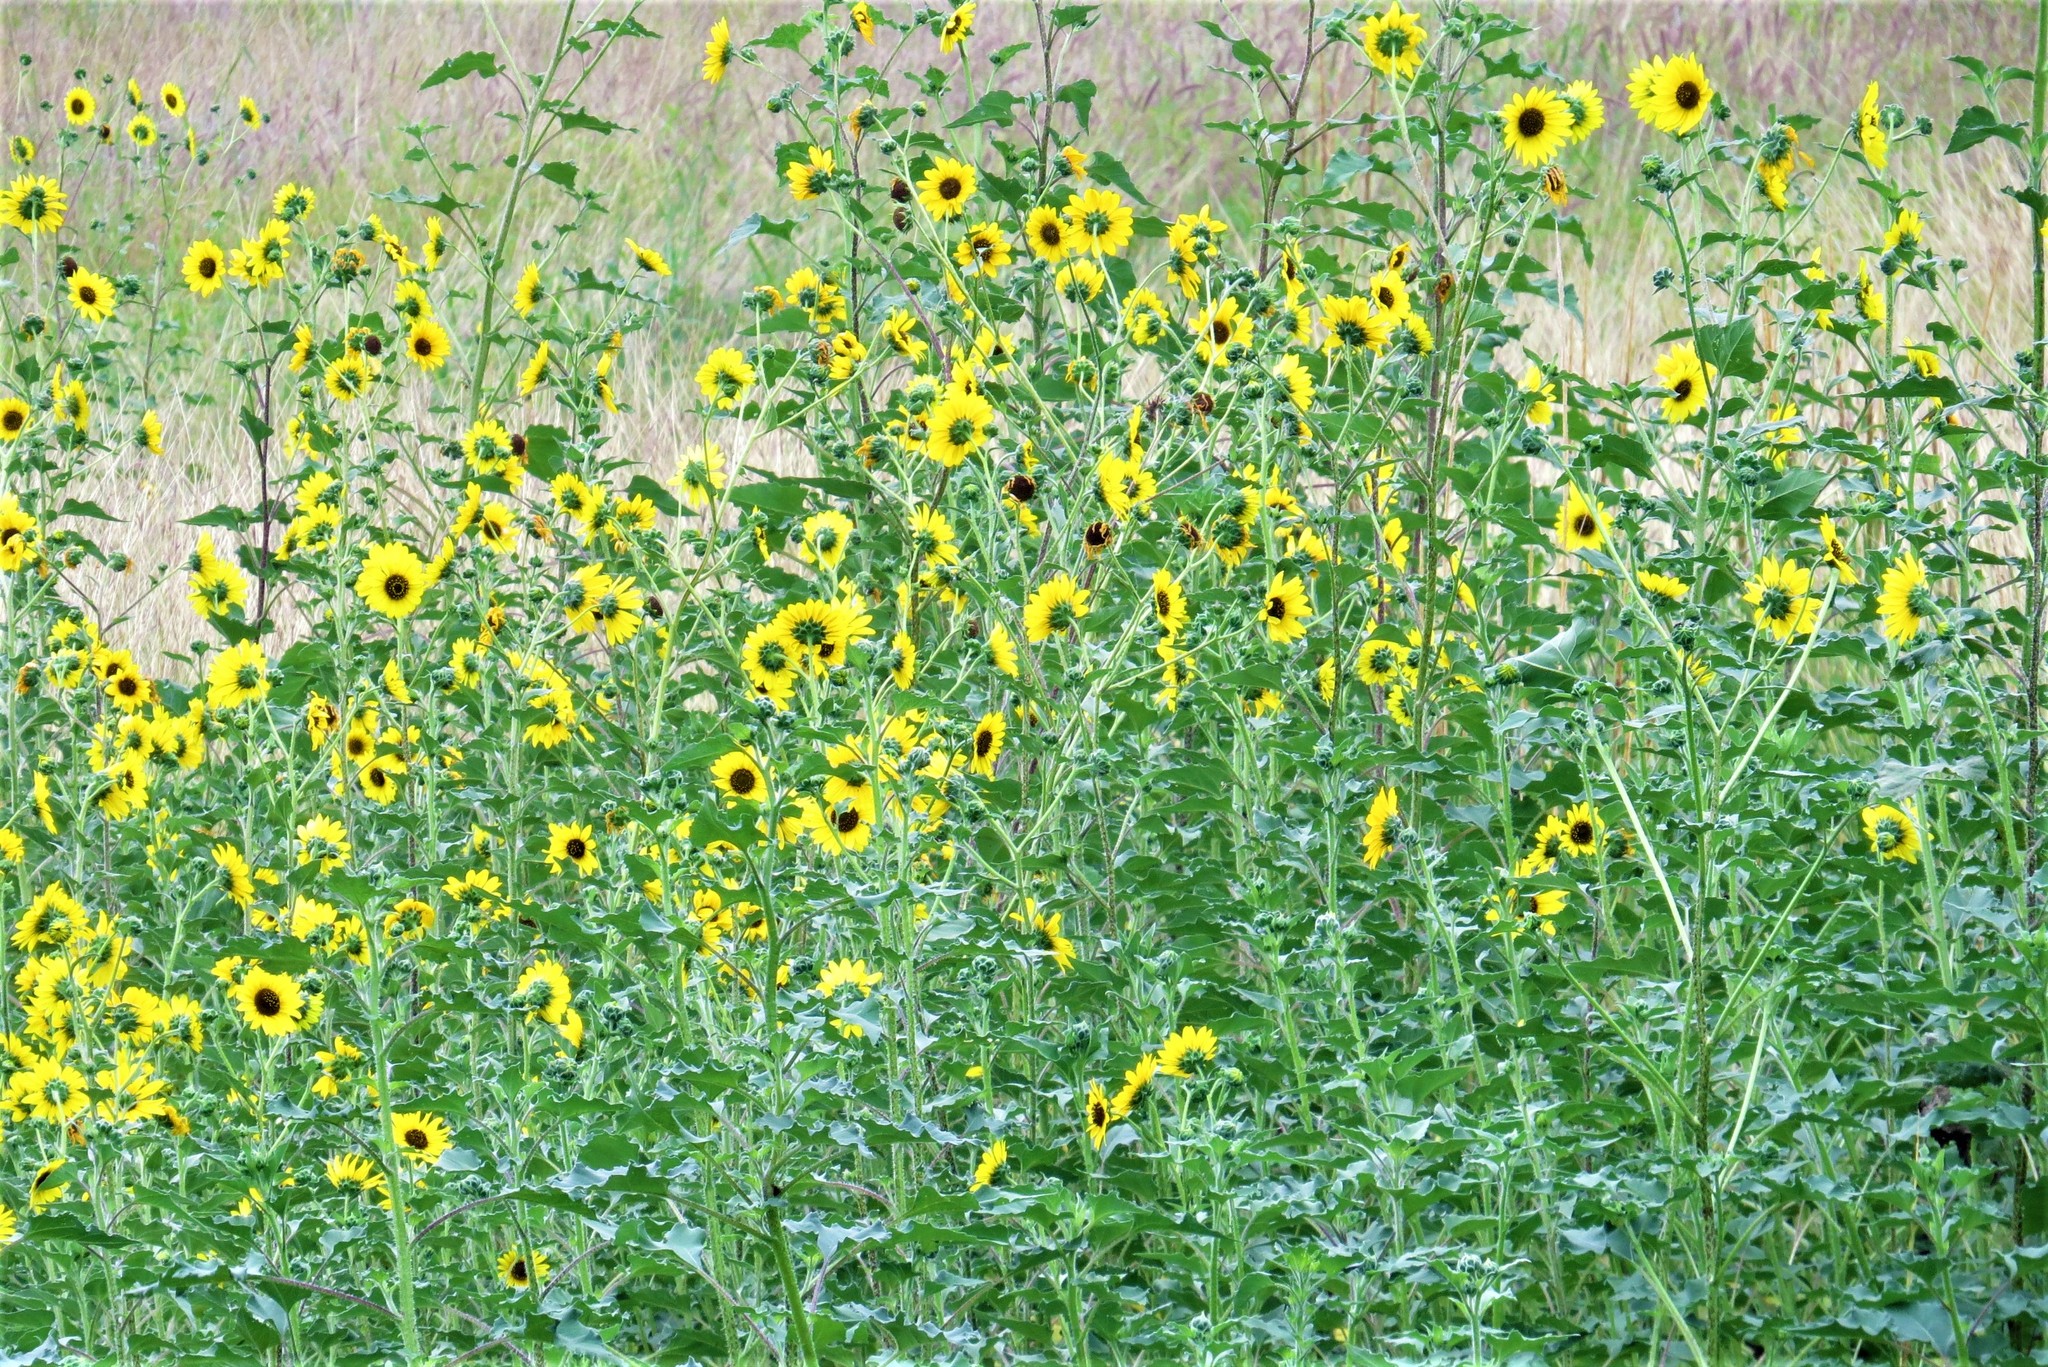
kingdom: Plantae
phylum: Tracheophyta
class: Magnoliopsida
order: Asterales
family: Asteraceae
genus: Helianthus
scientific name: Helianthus annuus
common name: Sunflower
